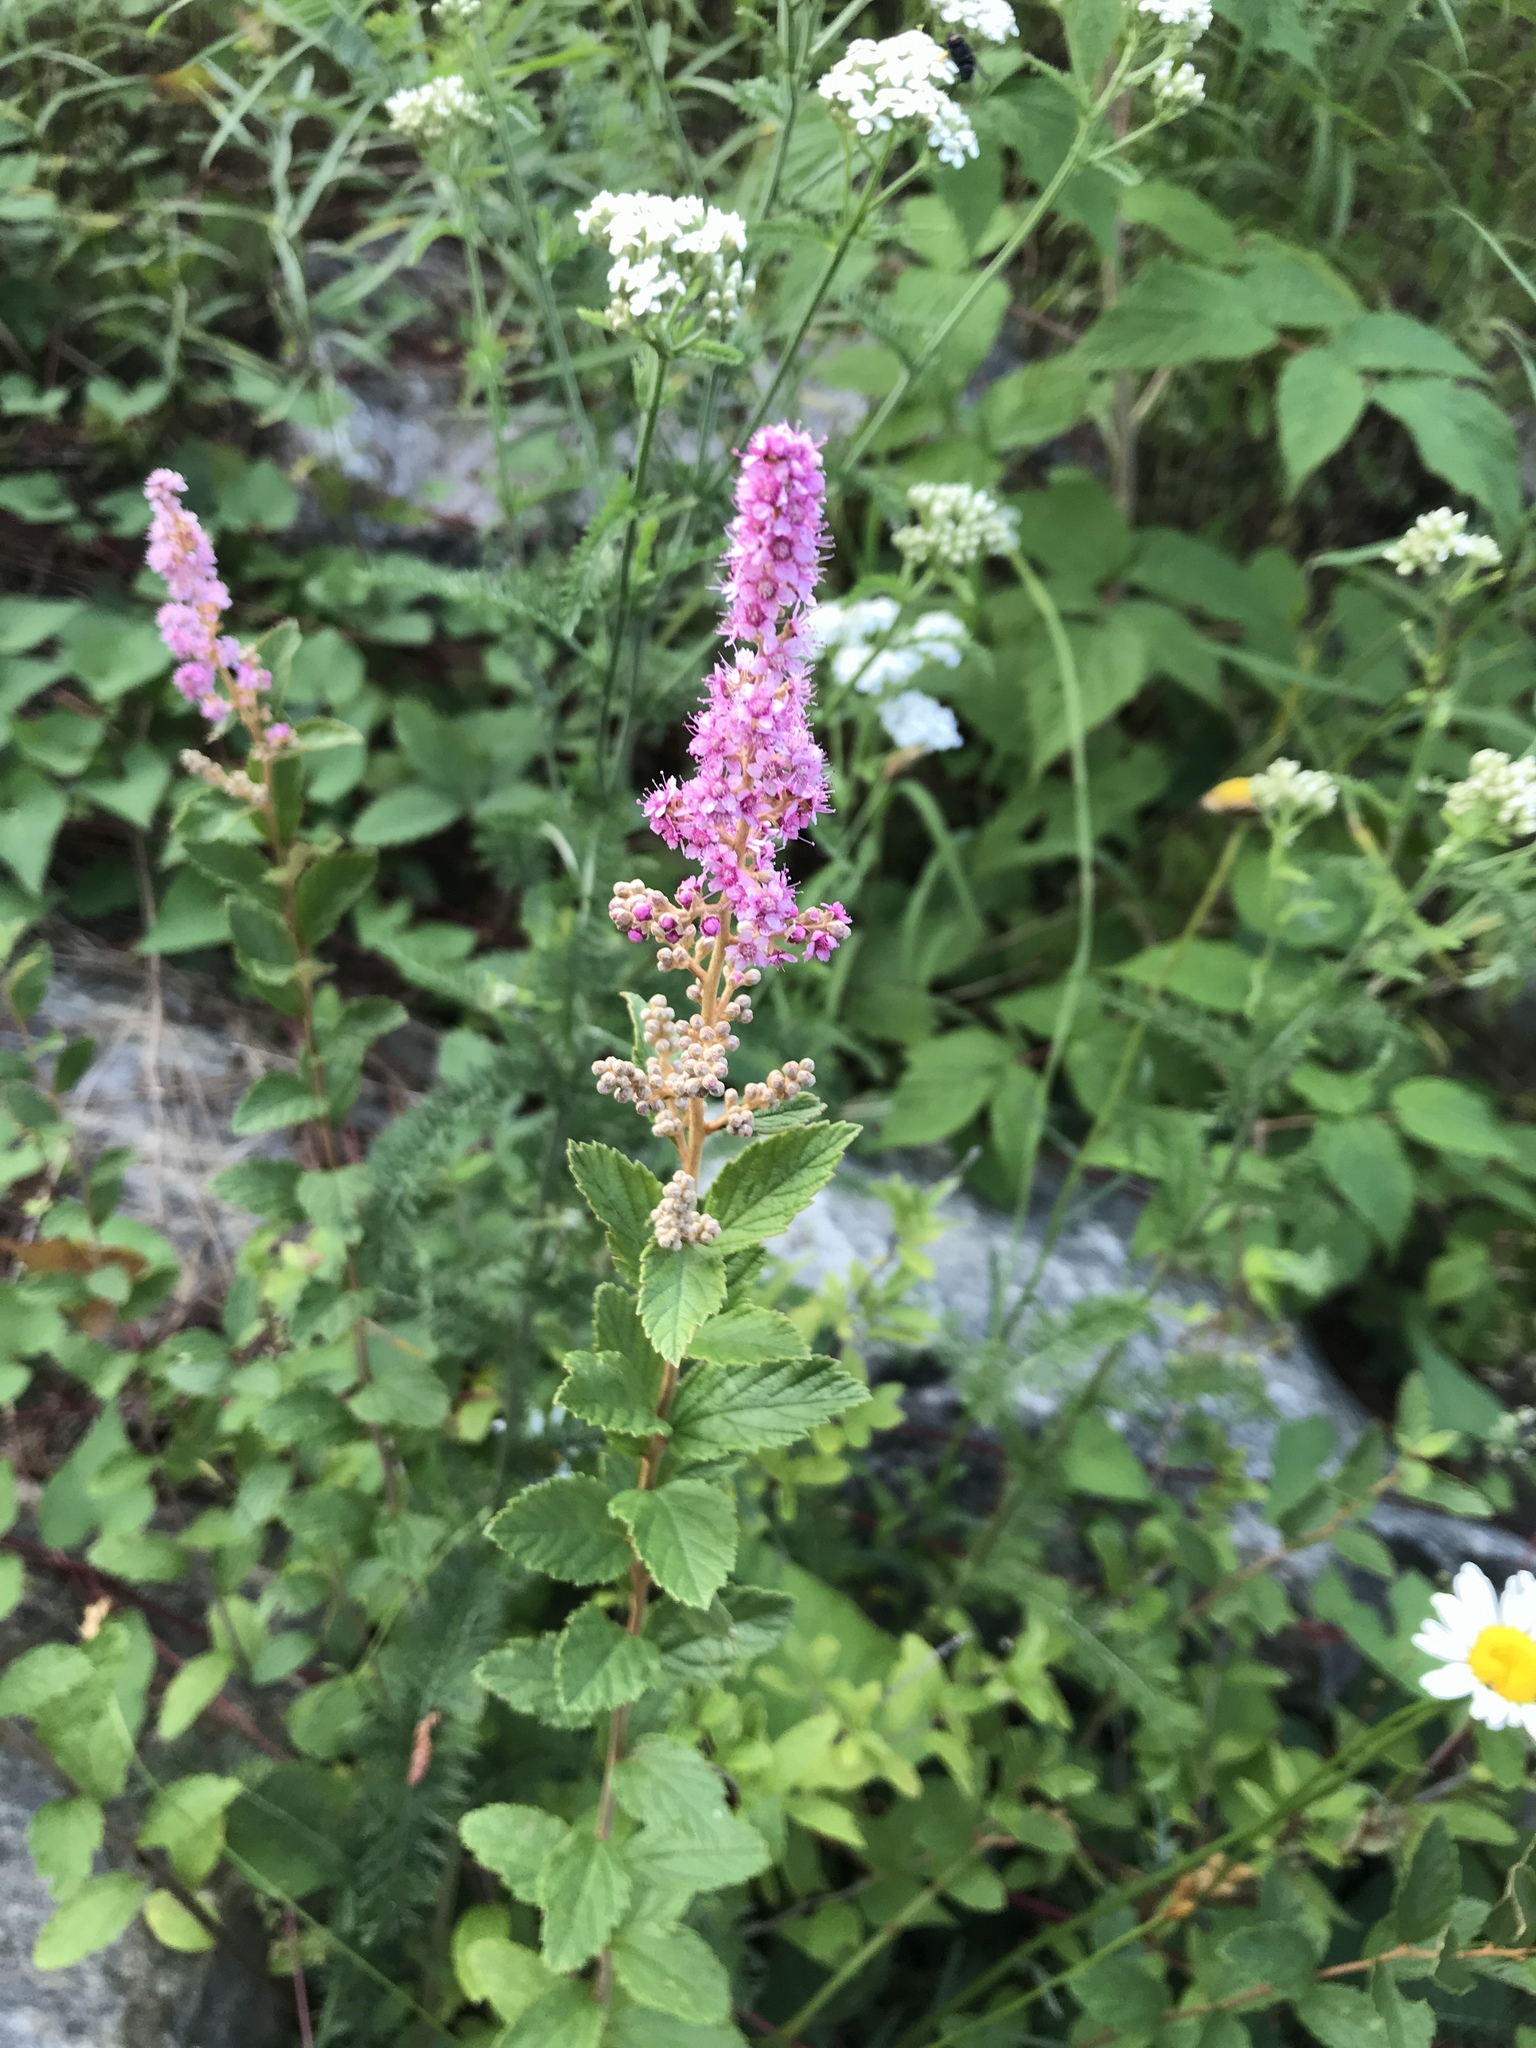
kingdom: Plantae
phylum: Tracheophyta
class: Magnoliopsida
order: Rosales
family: Rosaceae
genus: Spiraea
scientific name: Spiraea tomentosa
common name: Hardhack
